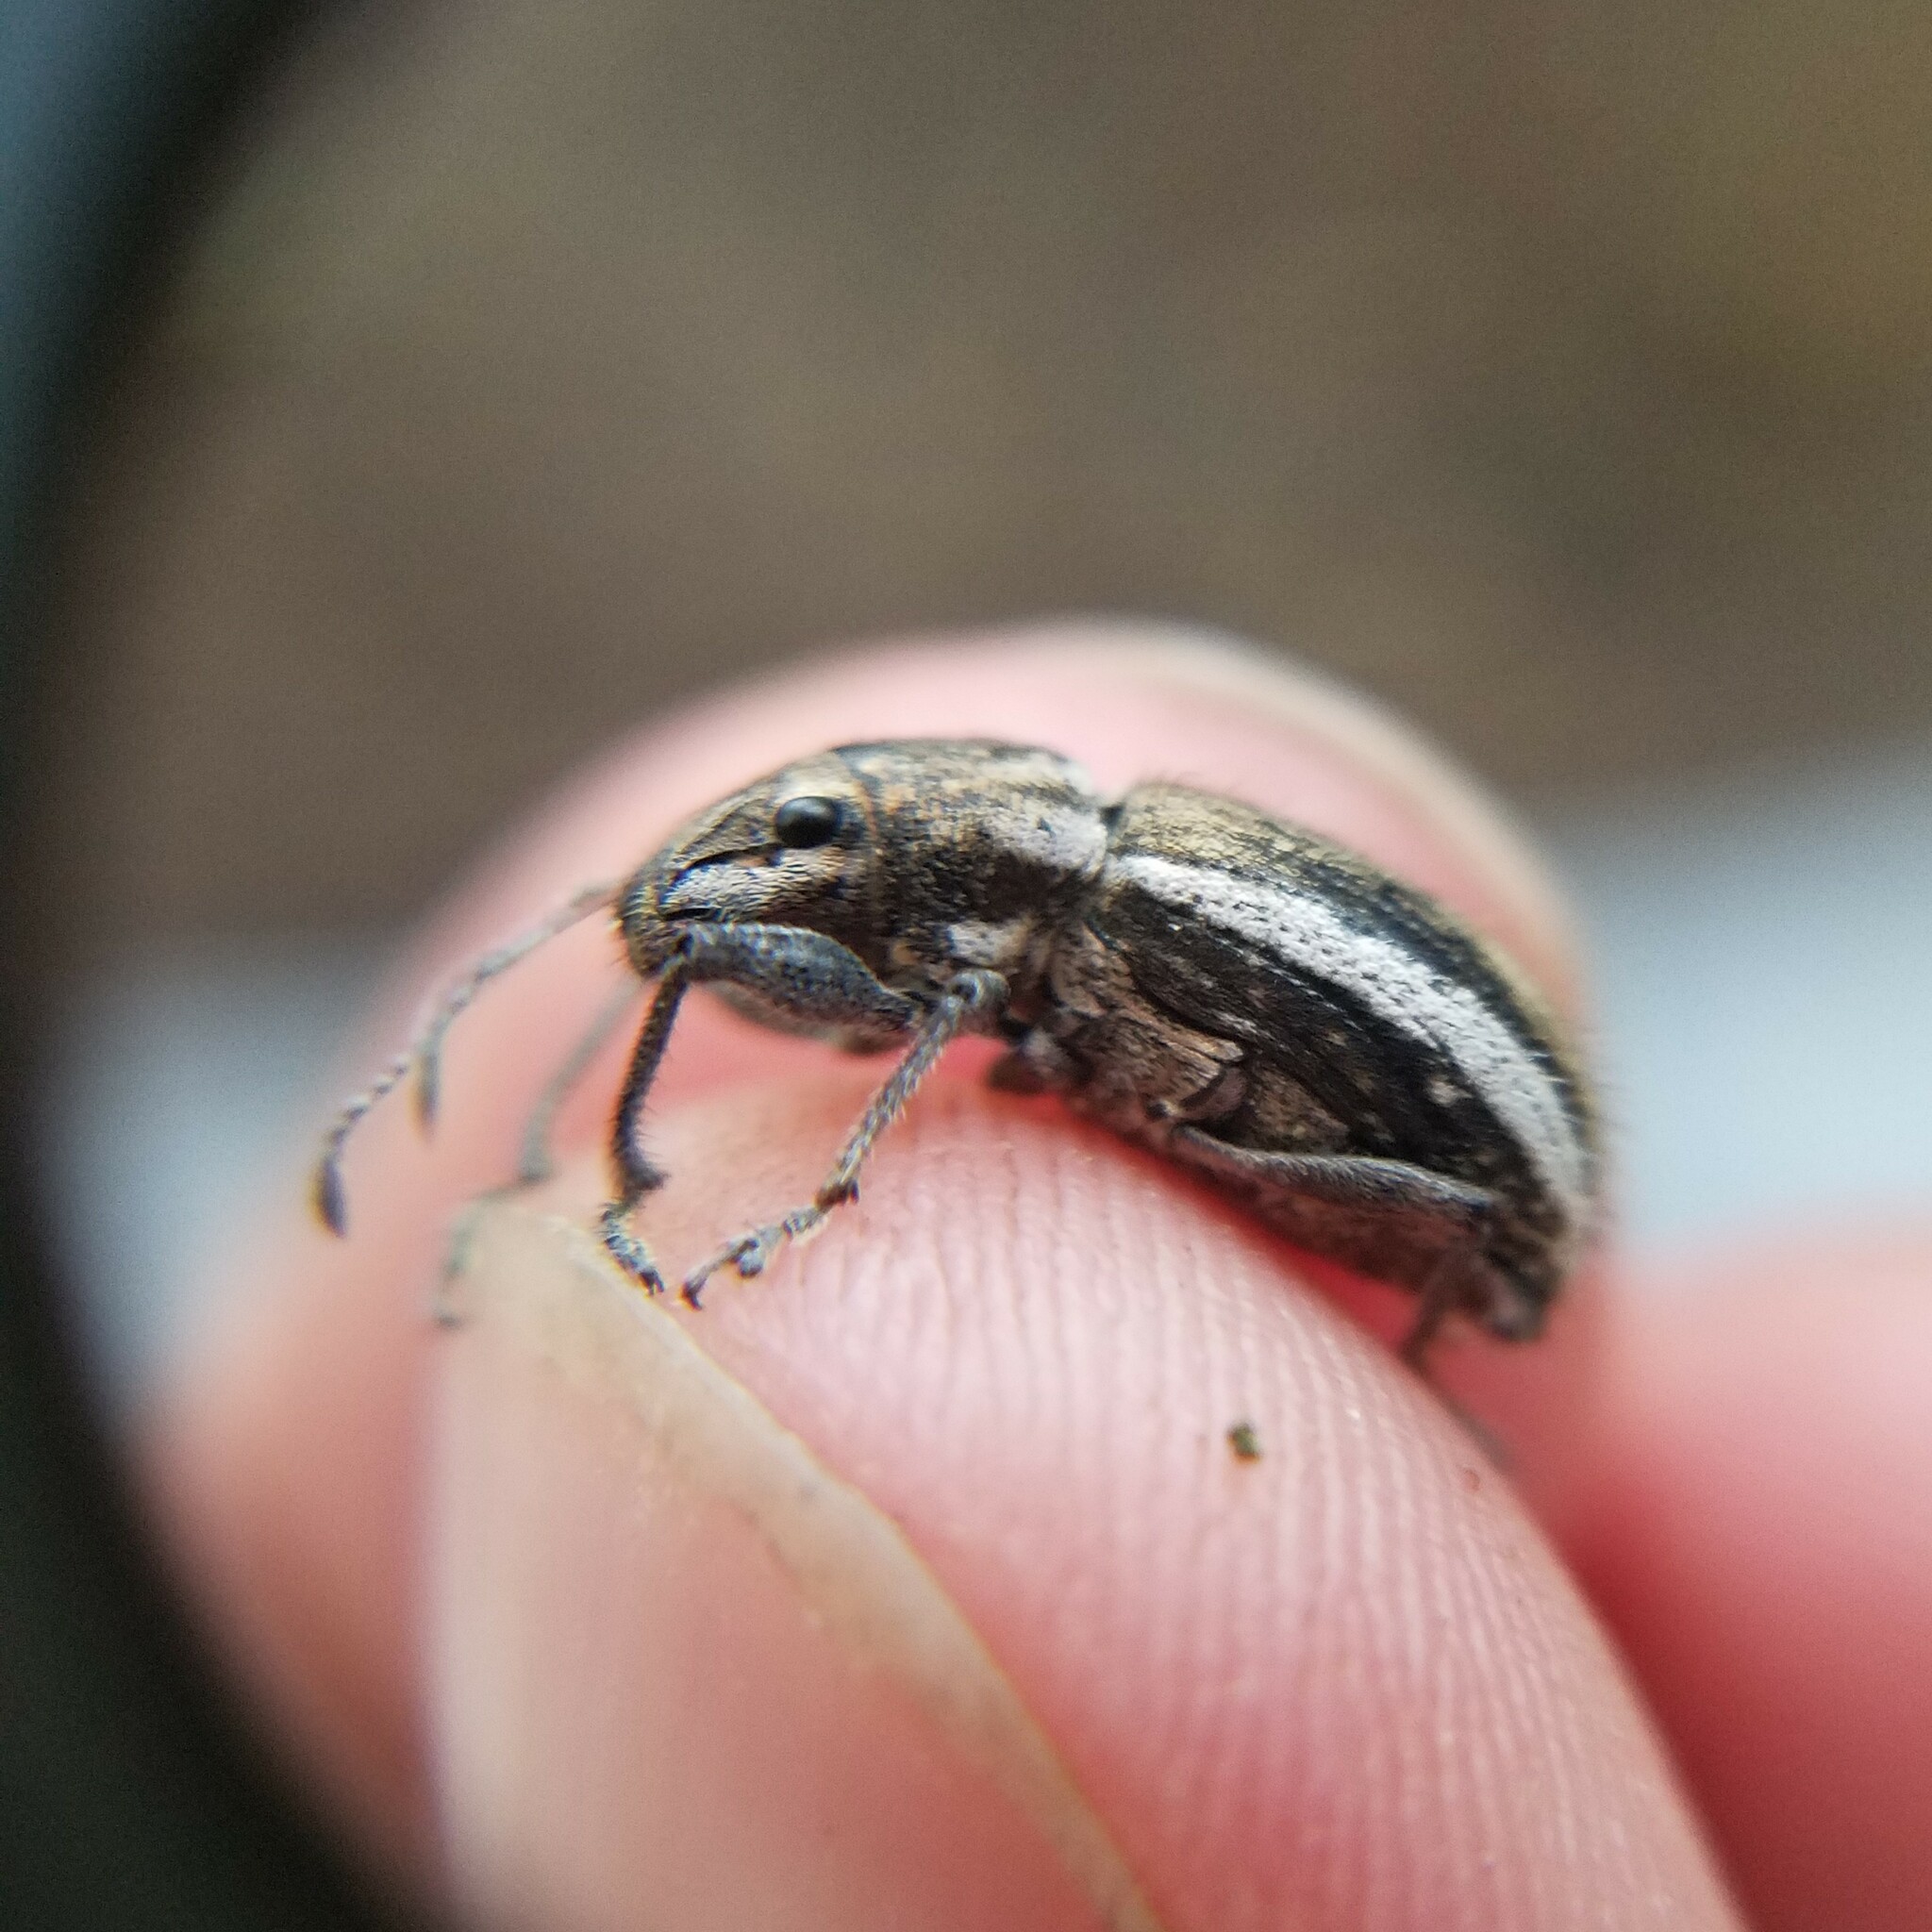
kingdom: Animalia
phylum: Arthropoda
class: Insecta
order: Coleoptera
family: Curculionidae
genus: Naupactus
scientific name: Naupactus leucoloma
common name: Whitefringed beetle
